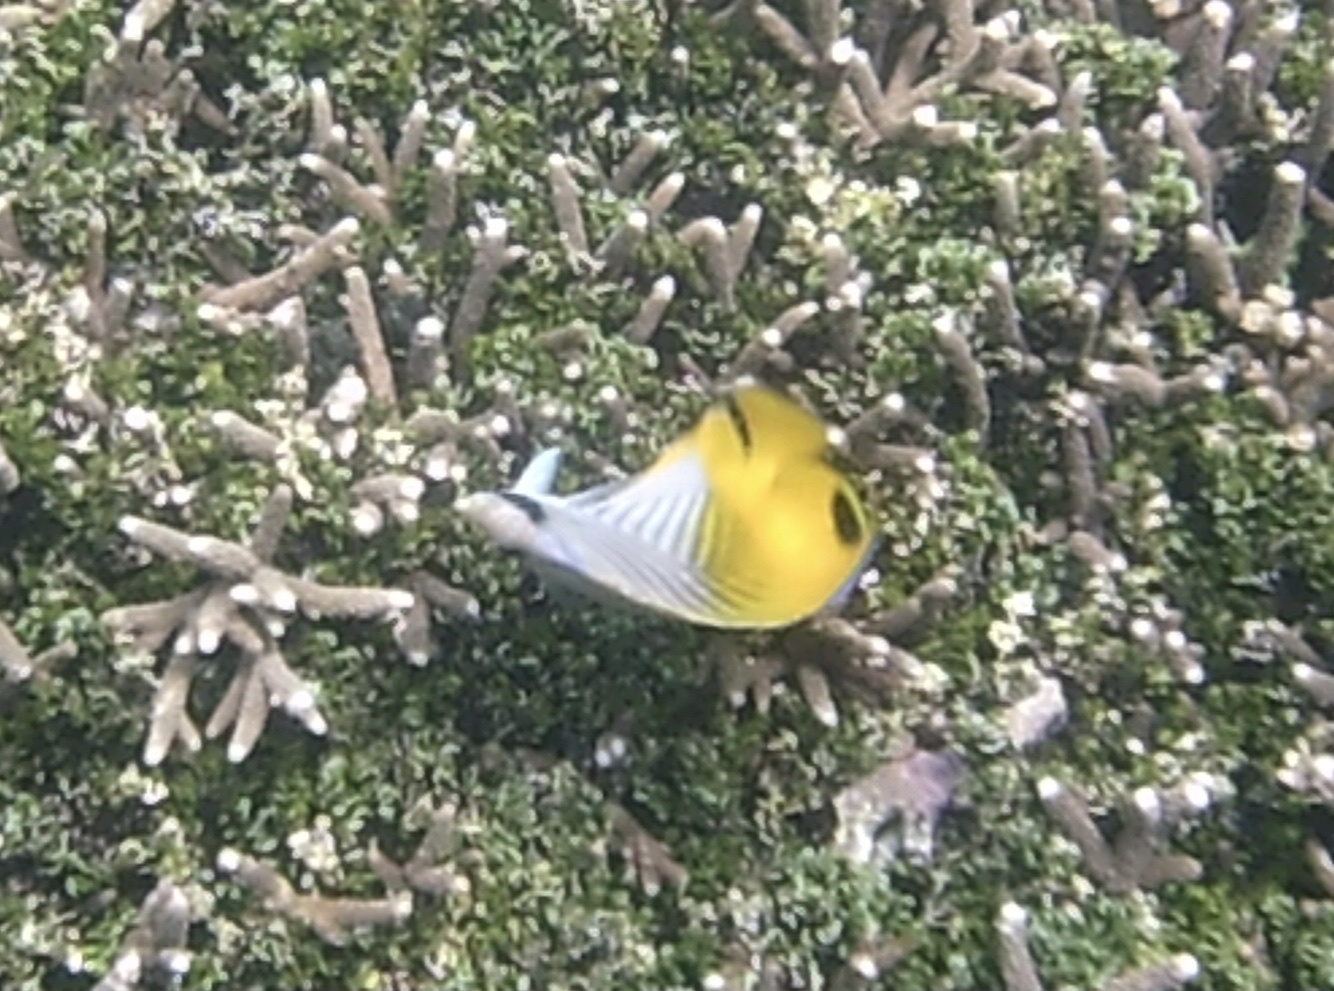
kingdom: Animalia
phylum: Chordata
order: Perciformes
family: Chaetodontidae
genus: Chaetodon
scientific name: Chaetodon auriga
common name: Threadfin butterflyfish
